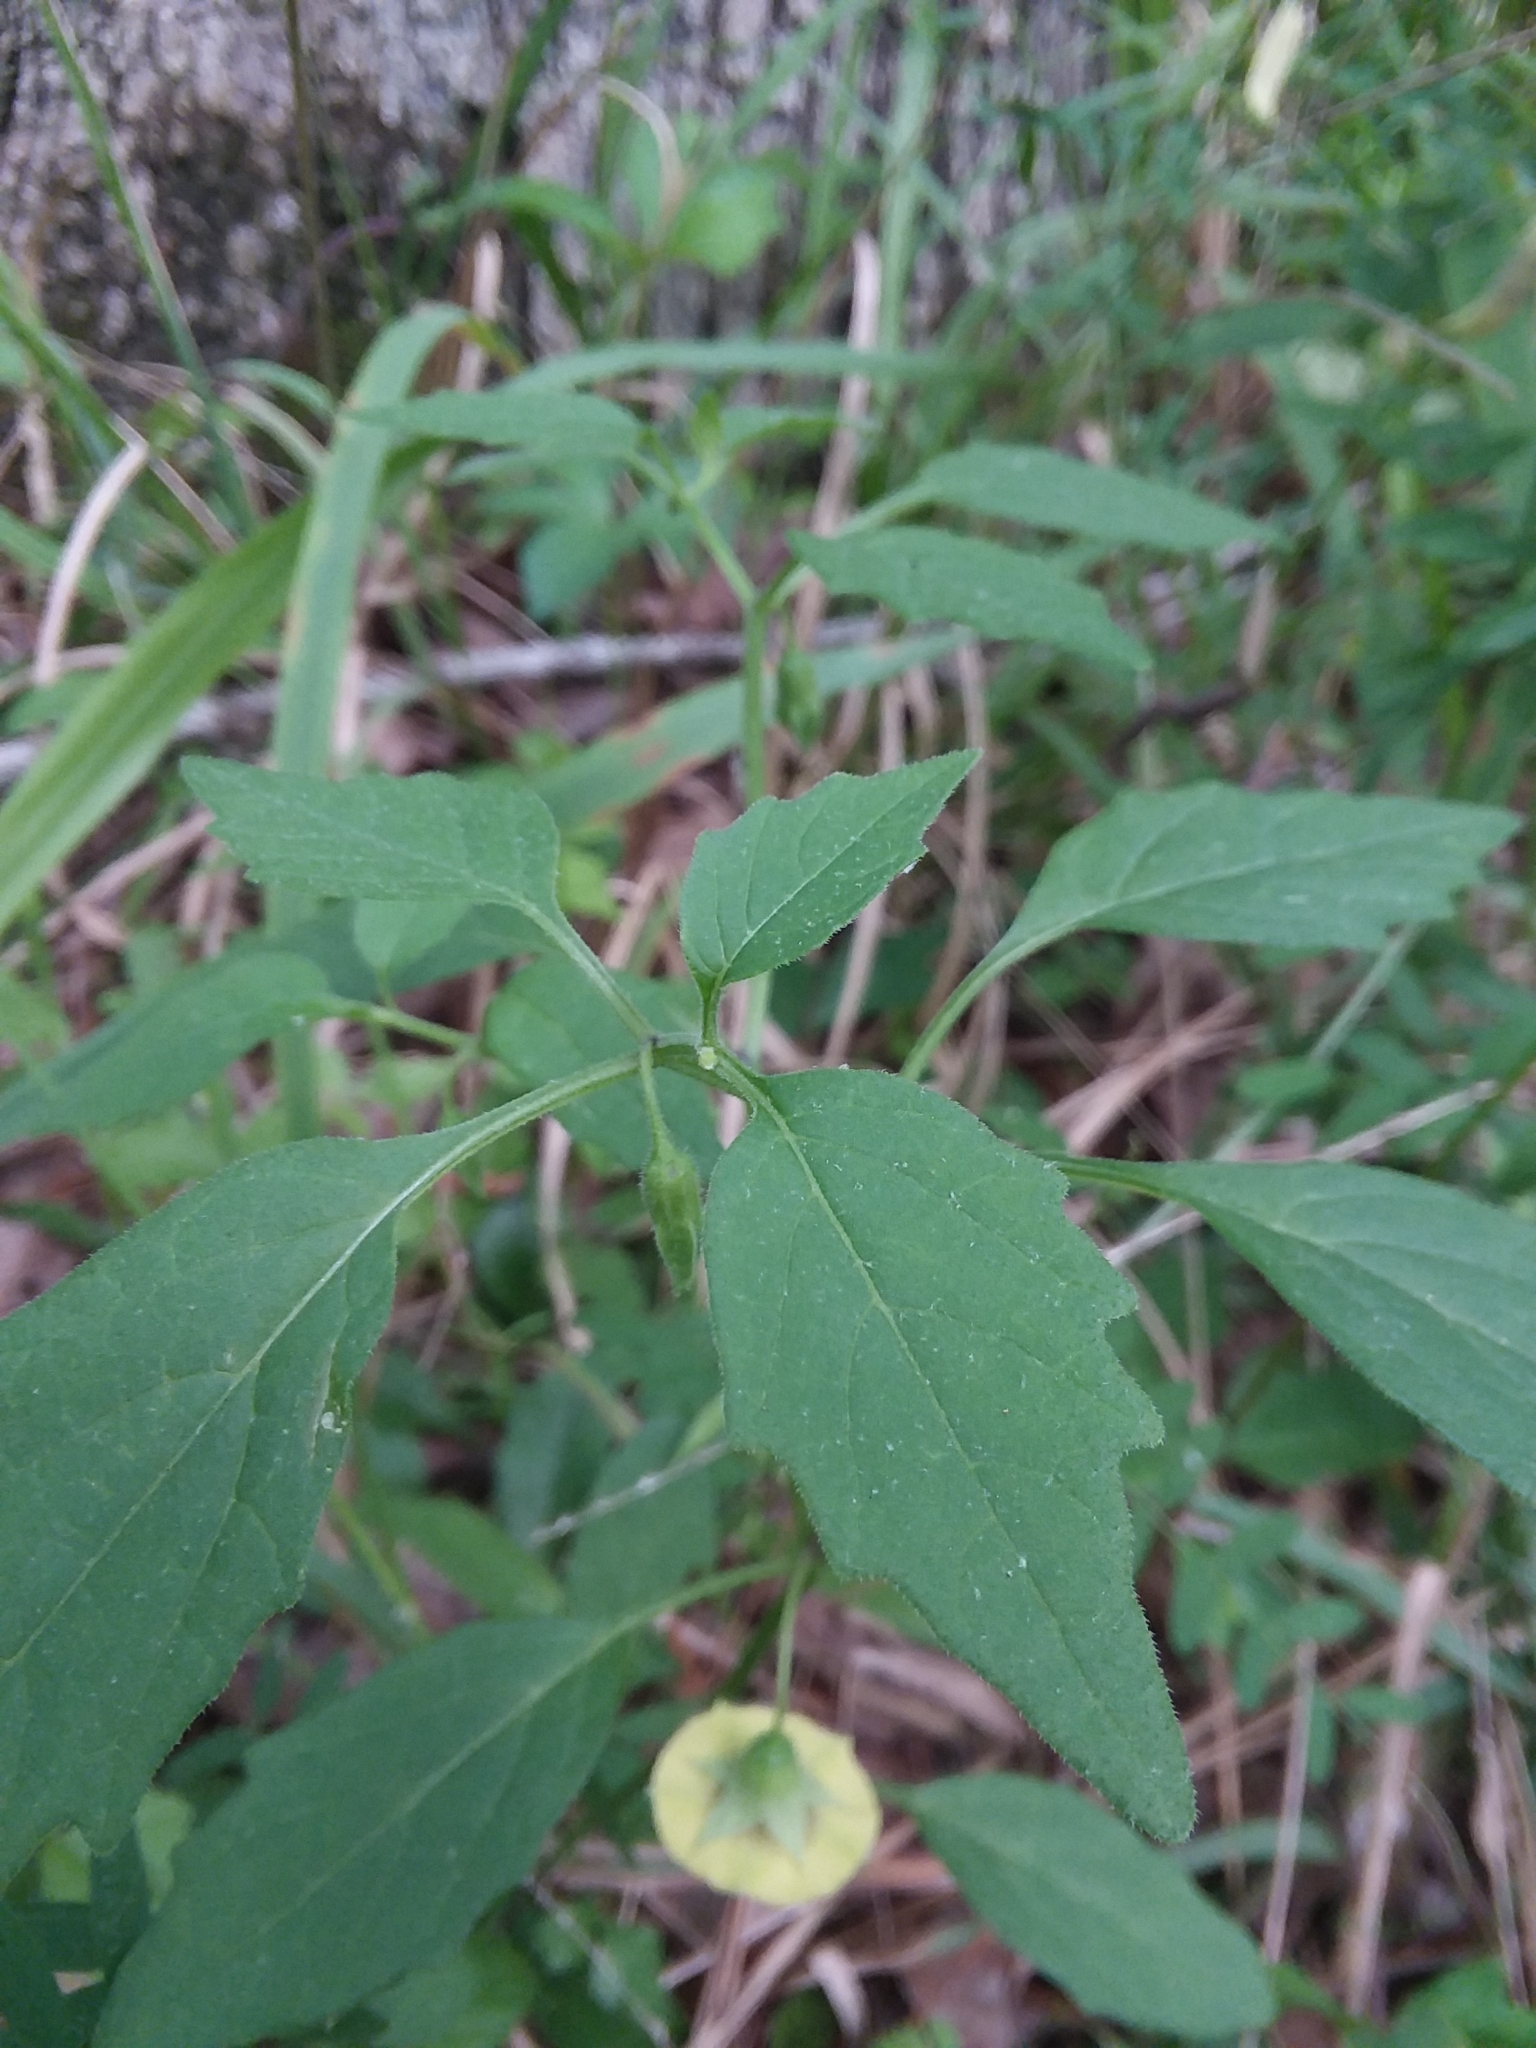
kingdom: Plantae
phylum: Tracheophyta
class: Magnoliopsida
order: Solanales
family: Solanaceae
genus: Physalis
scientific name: Physalis virginiana
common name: Virginia ground-cherry
